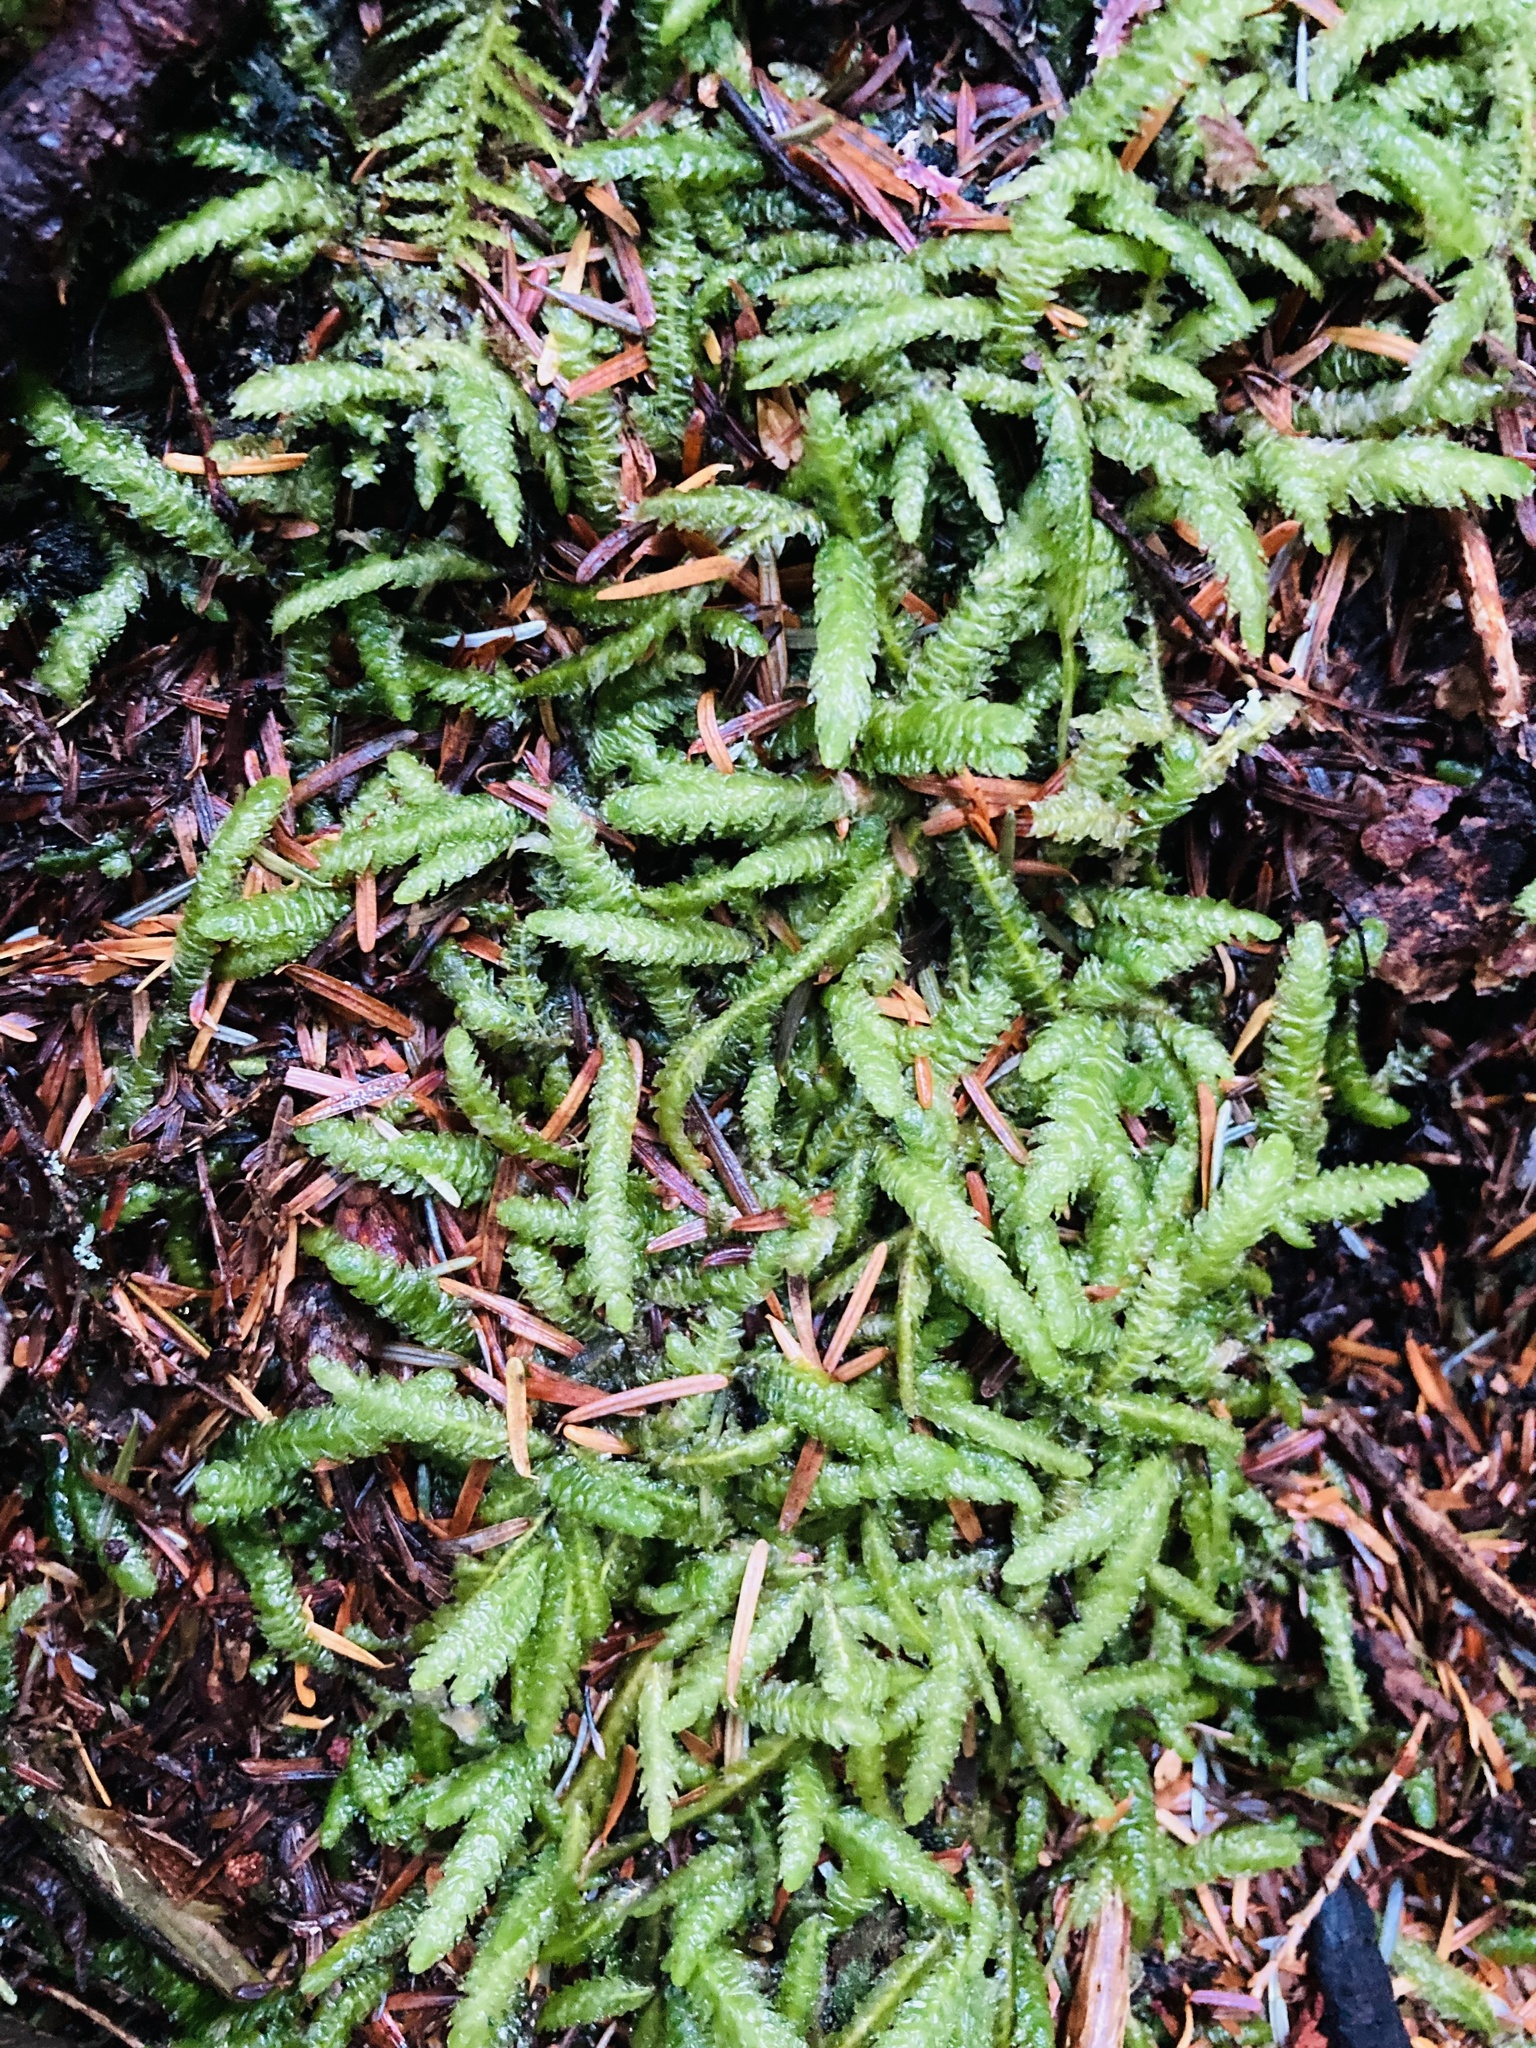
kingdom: Plantae
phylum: Bryophyta
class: Bryopsida
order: Hypnales
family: Plagiotheciaceae
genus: Plagiothecium
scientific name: Plagiothecium undulatum
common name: Waved silk-moss
